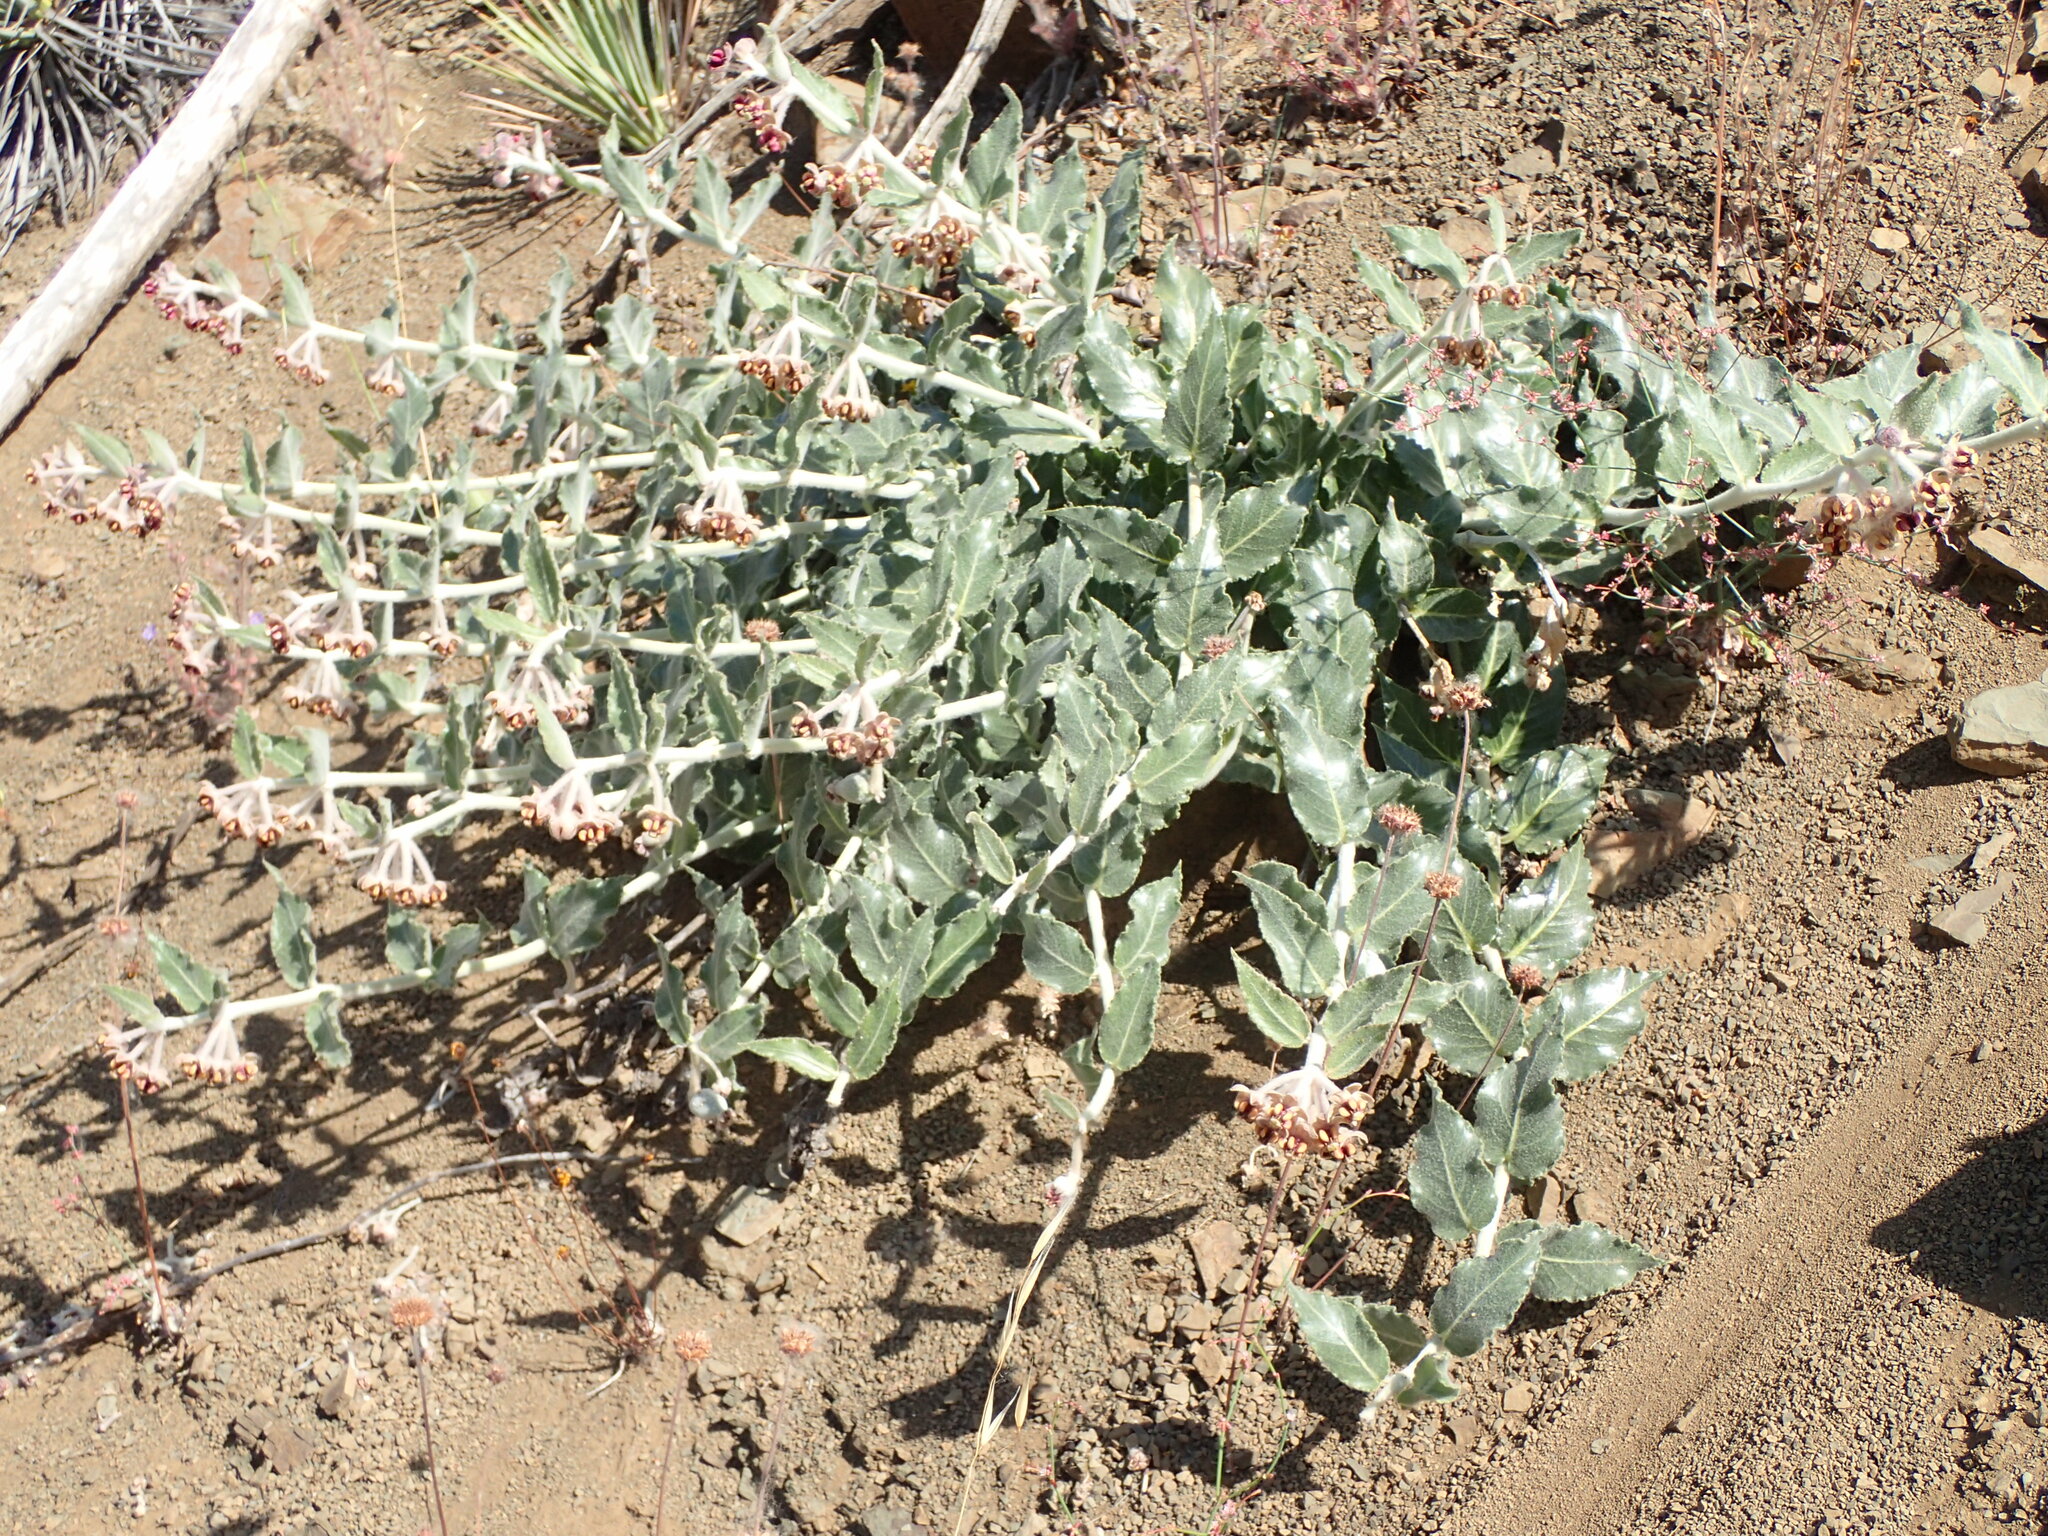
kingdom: Plantae
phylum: Tracheophyta
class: Magnoliopsida
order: Gentianales
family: Apocynaceae
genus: Asclepias
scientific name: Asclepias californica
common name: California milkweed
